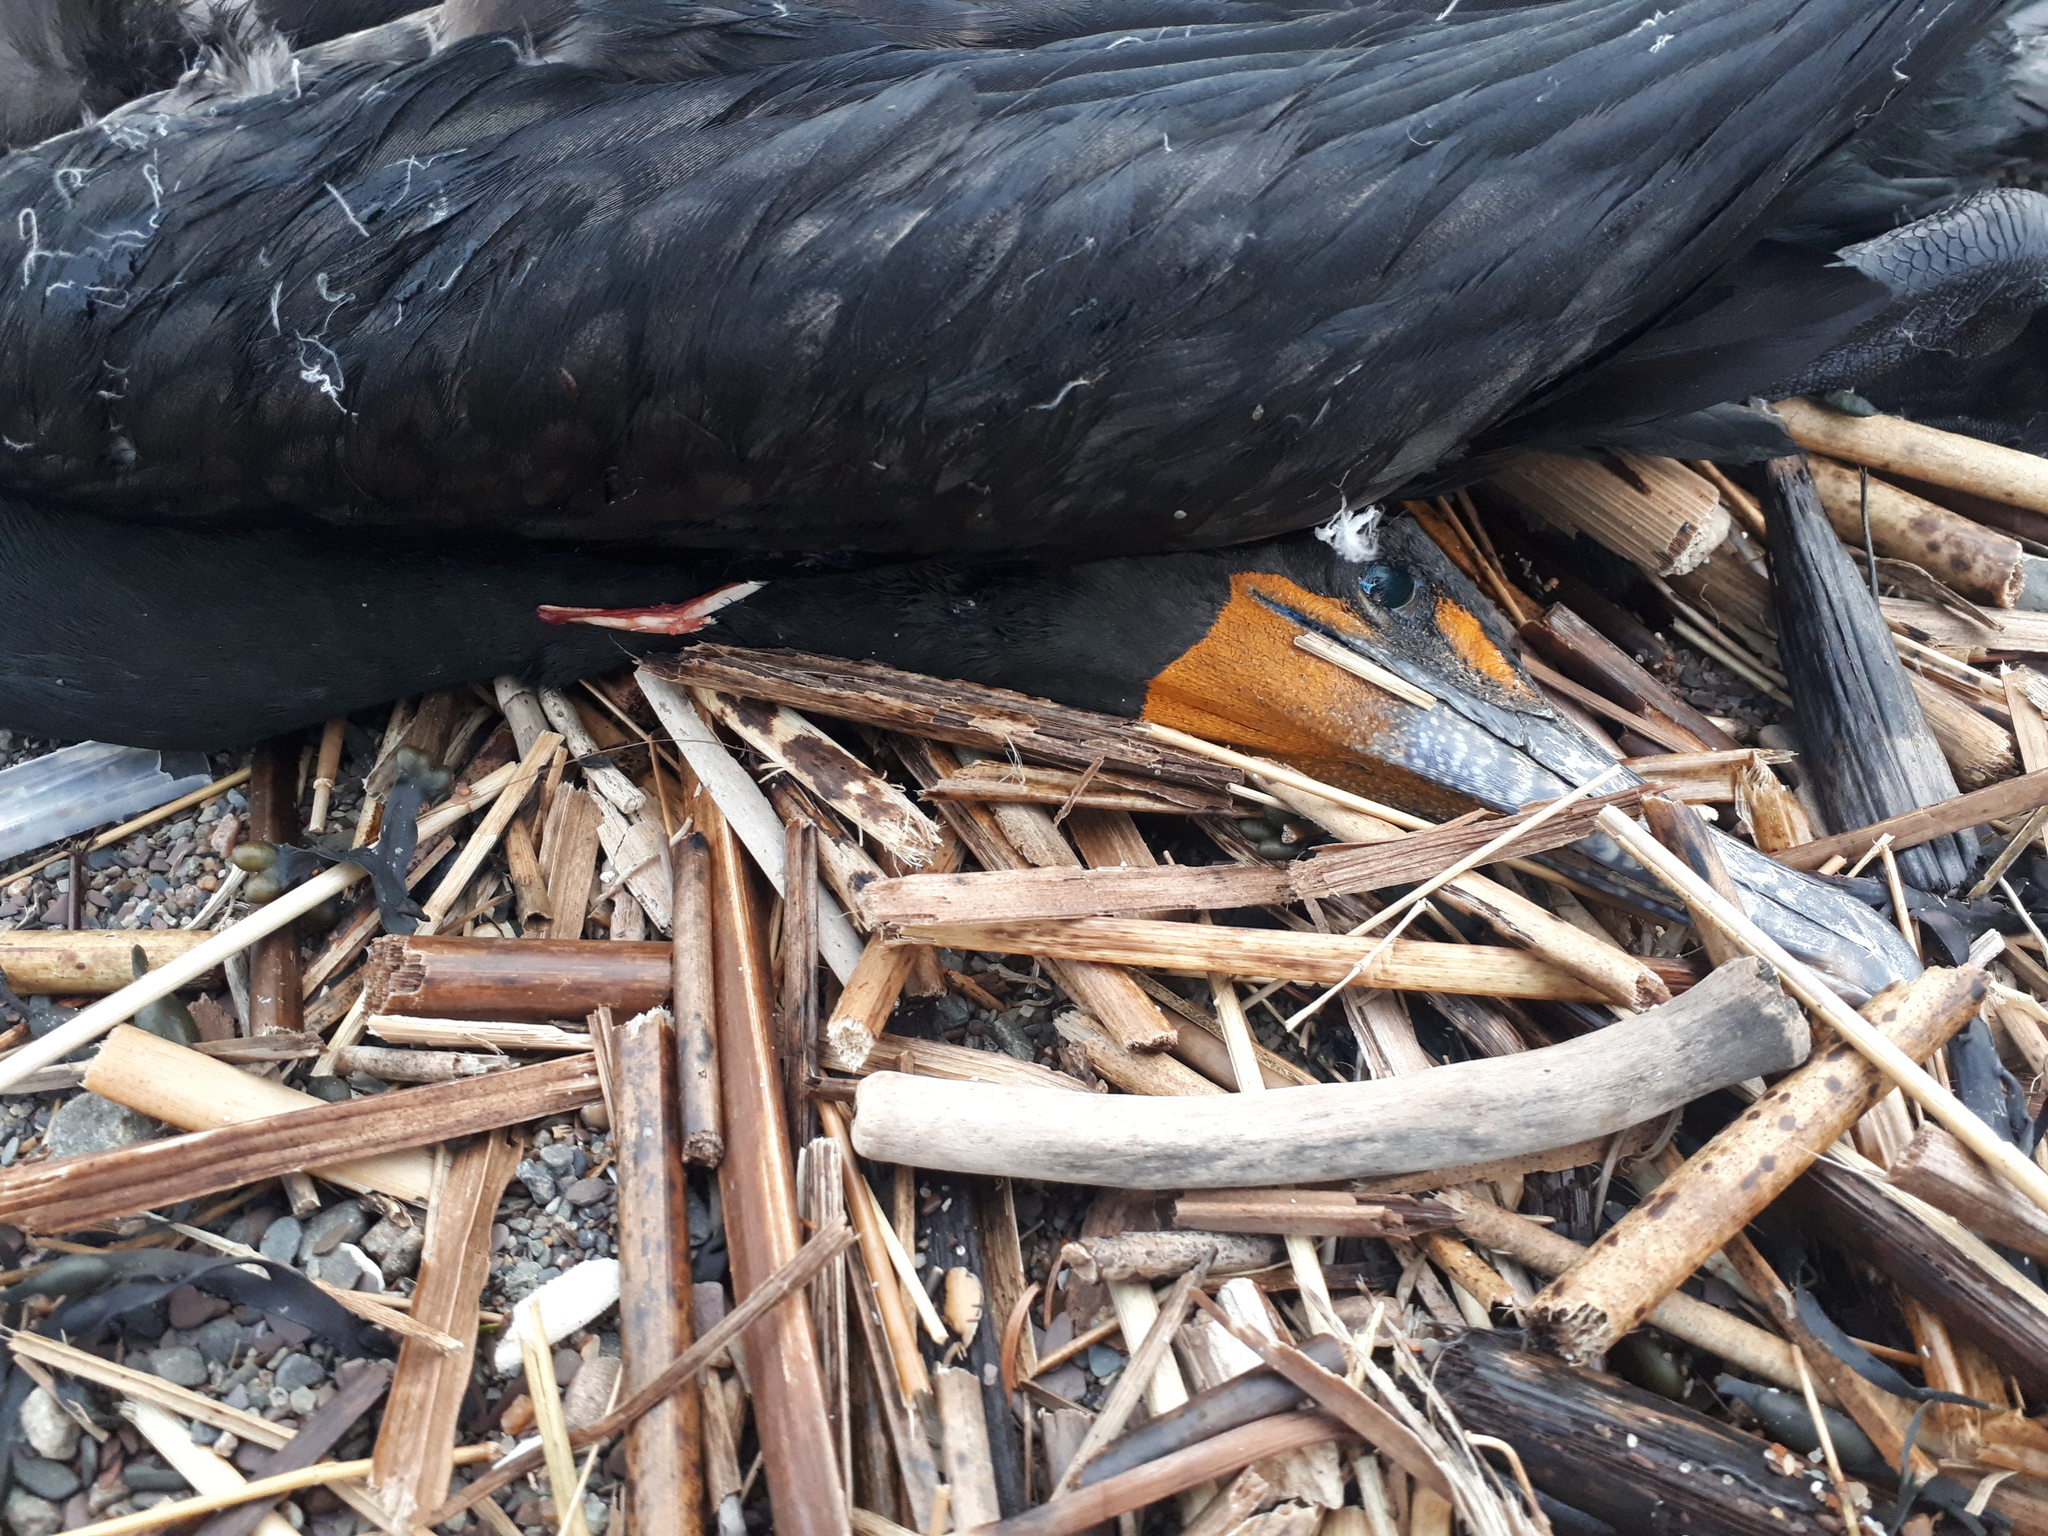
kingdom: Animalia
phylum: Chordata
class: Aves
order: Suliformes
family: Phalacrocoracidae
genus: Phalacrocorax
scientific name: Phalacrocorax auritus
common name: Double-crested cormorant
